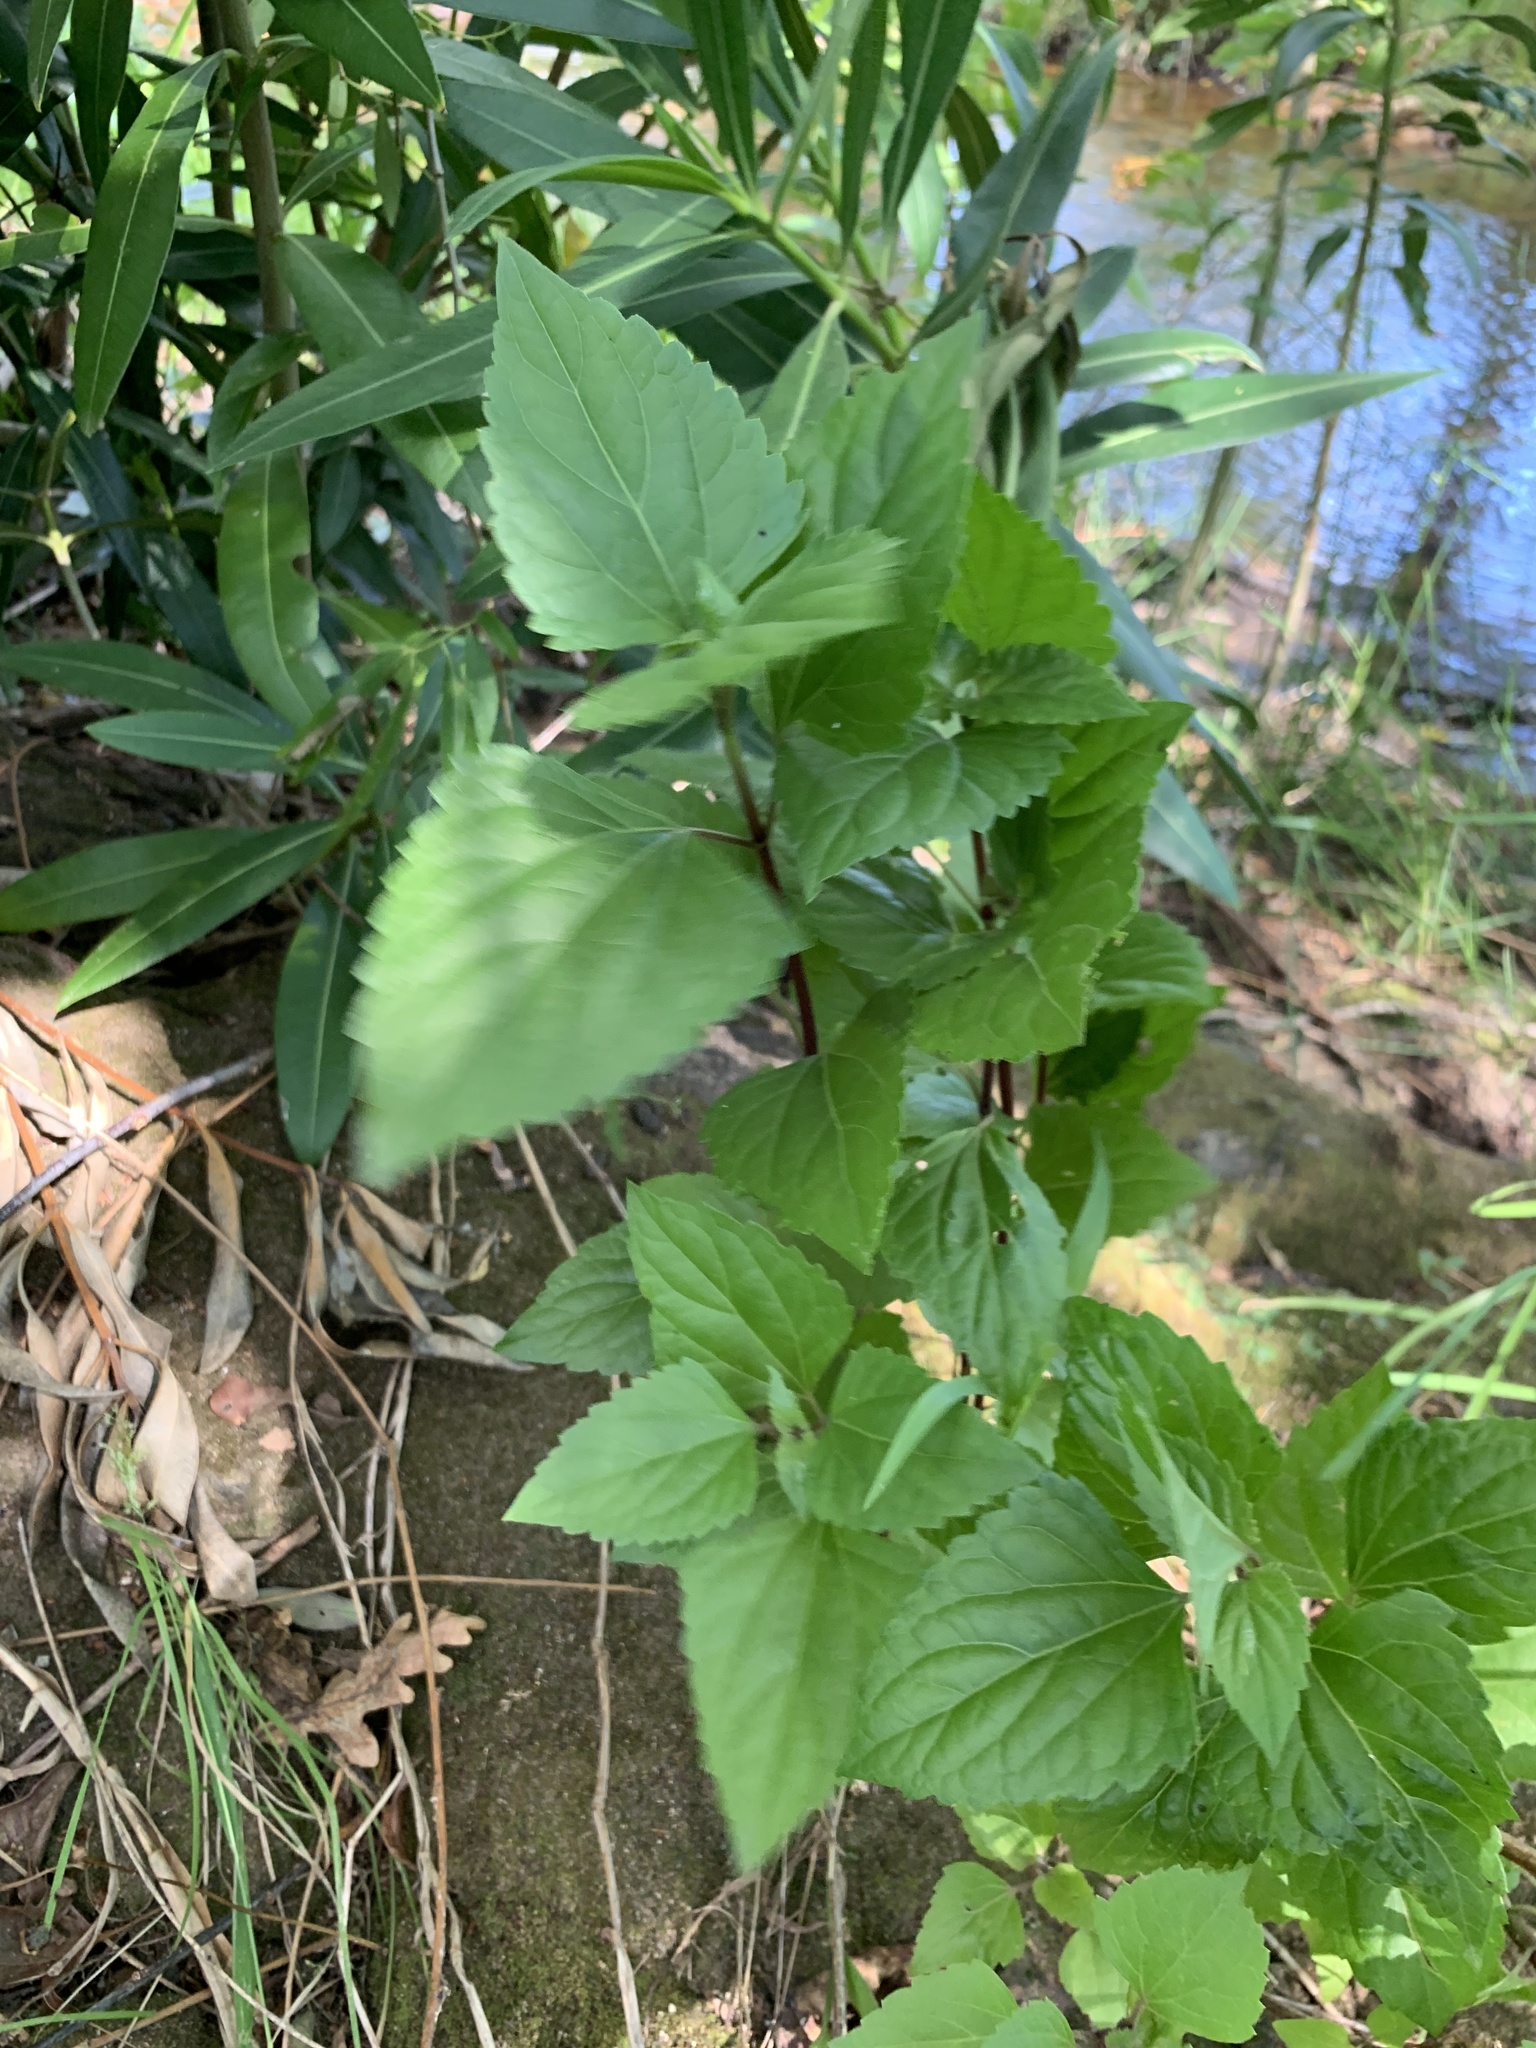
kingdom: Plantae
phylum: Tracheophyta
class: Magnoliopsida
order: Asterales
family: Asteraceae
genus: Ageratina
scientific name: Ageratina adenophora
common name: Sticky snakeroot
